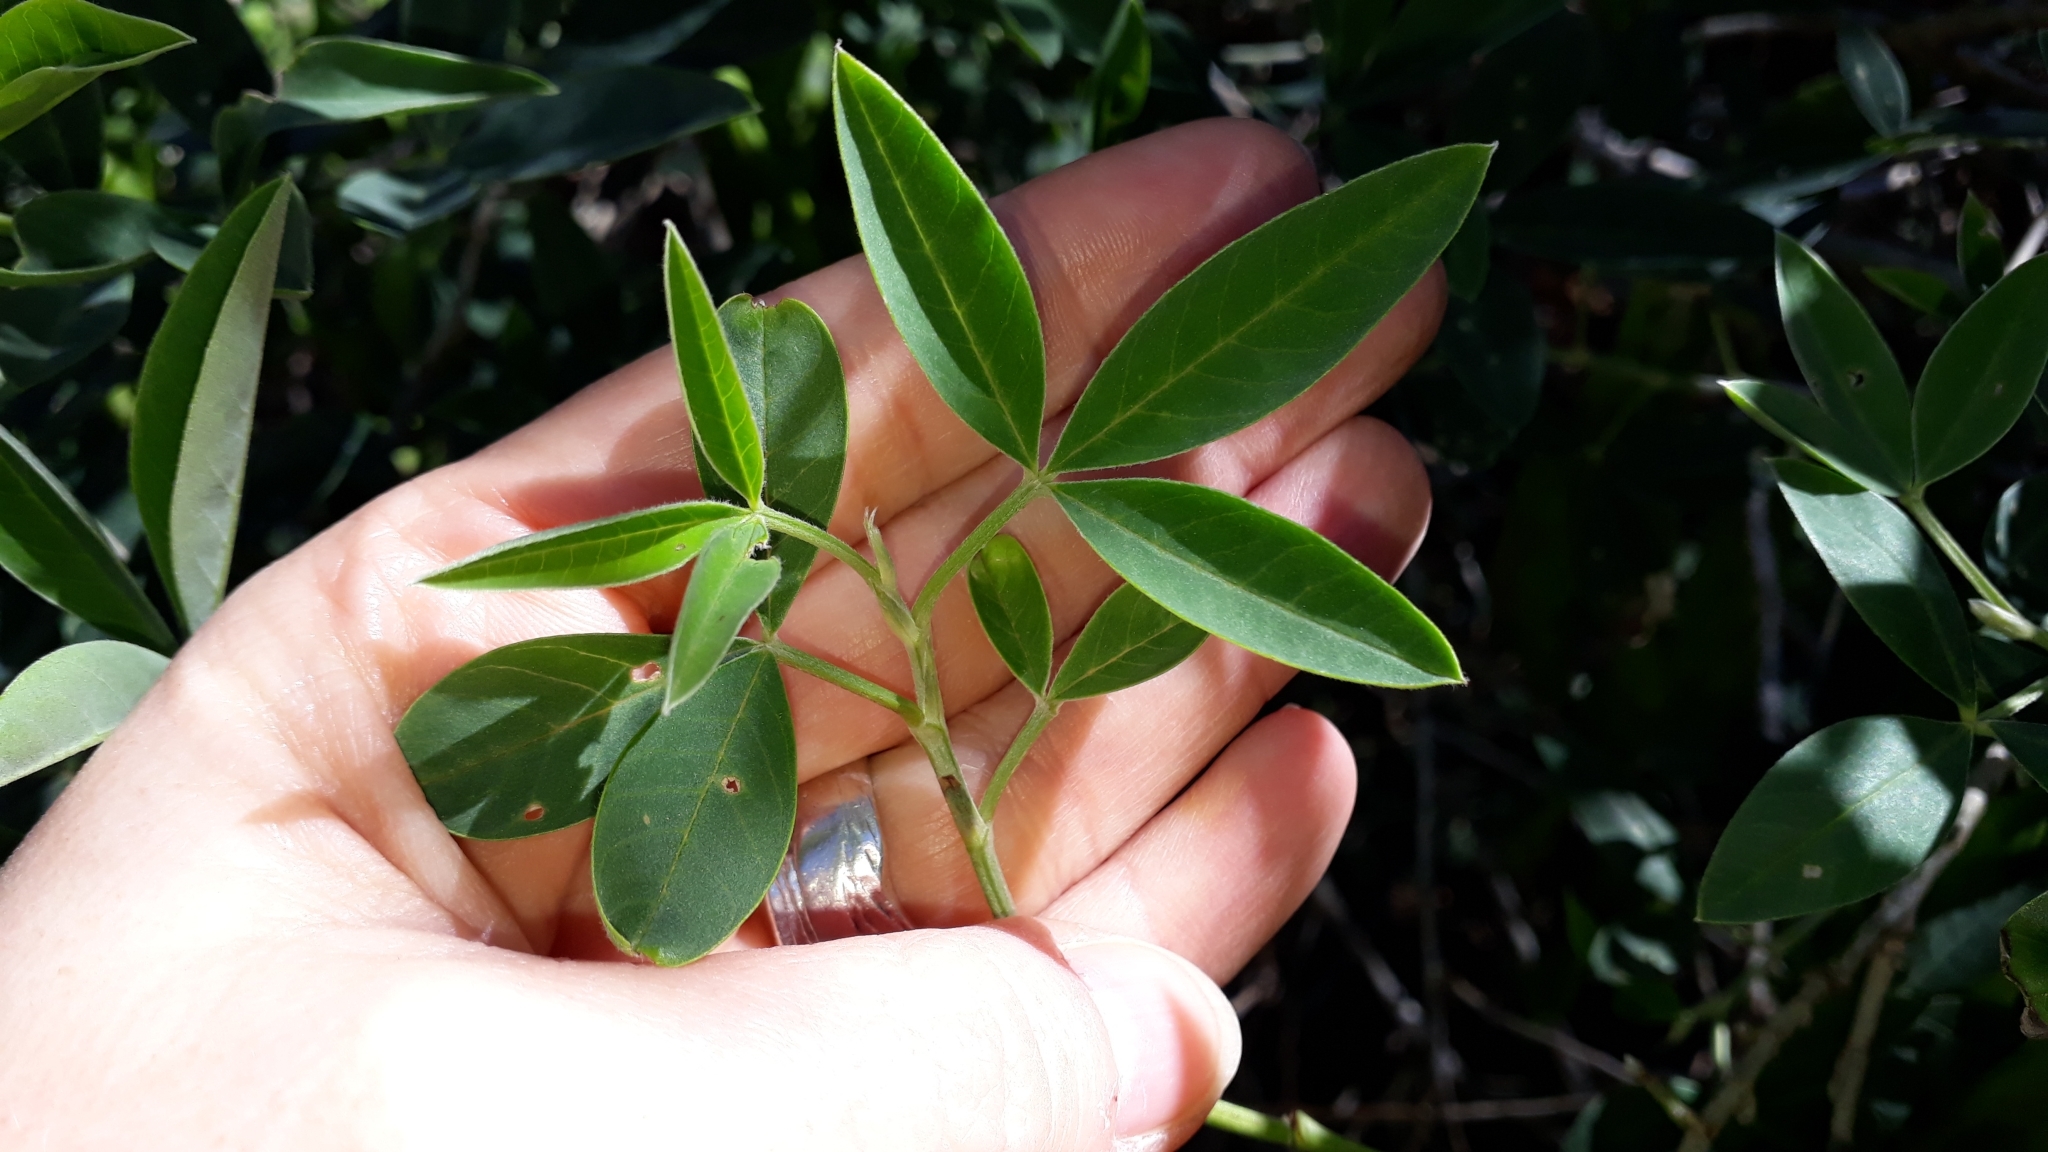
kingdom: Plantae
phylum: Tracheophyta
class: Magnoliopsida
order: Fabales
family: Fabaceae
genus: Anagyris
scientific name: Anagyris foetida
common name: Stinking bean trefoil
